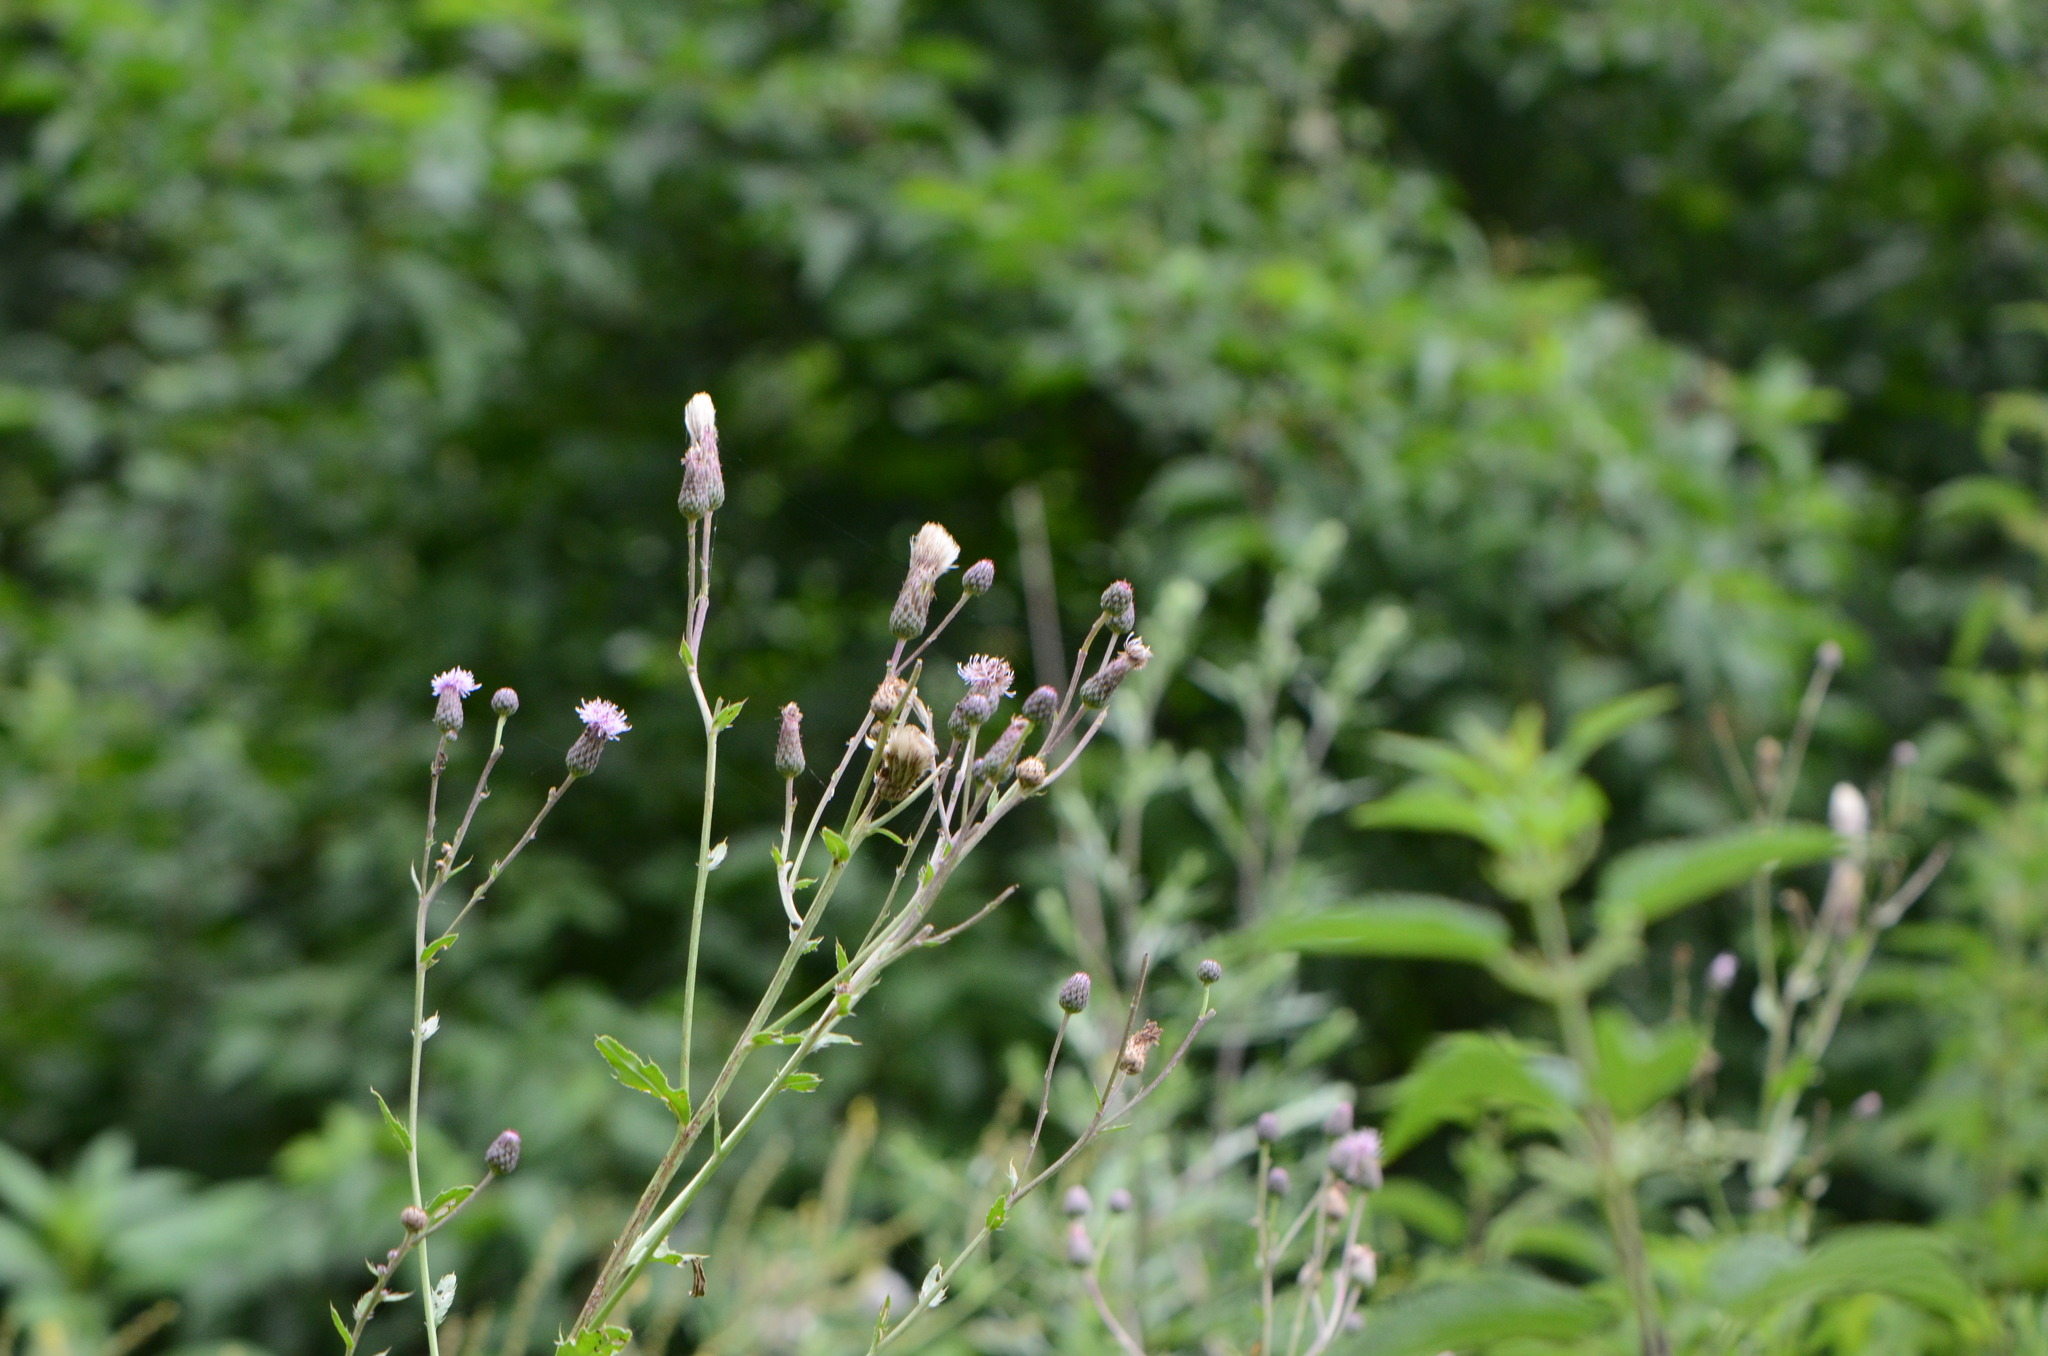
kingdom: Plantae
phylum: Tracheophyta
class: Magnoliopsida
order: Asterales
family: Asteraceae
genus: Cirsium
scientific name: Cirsium arvense
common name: Creeping thistle
